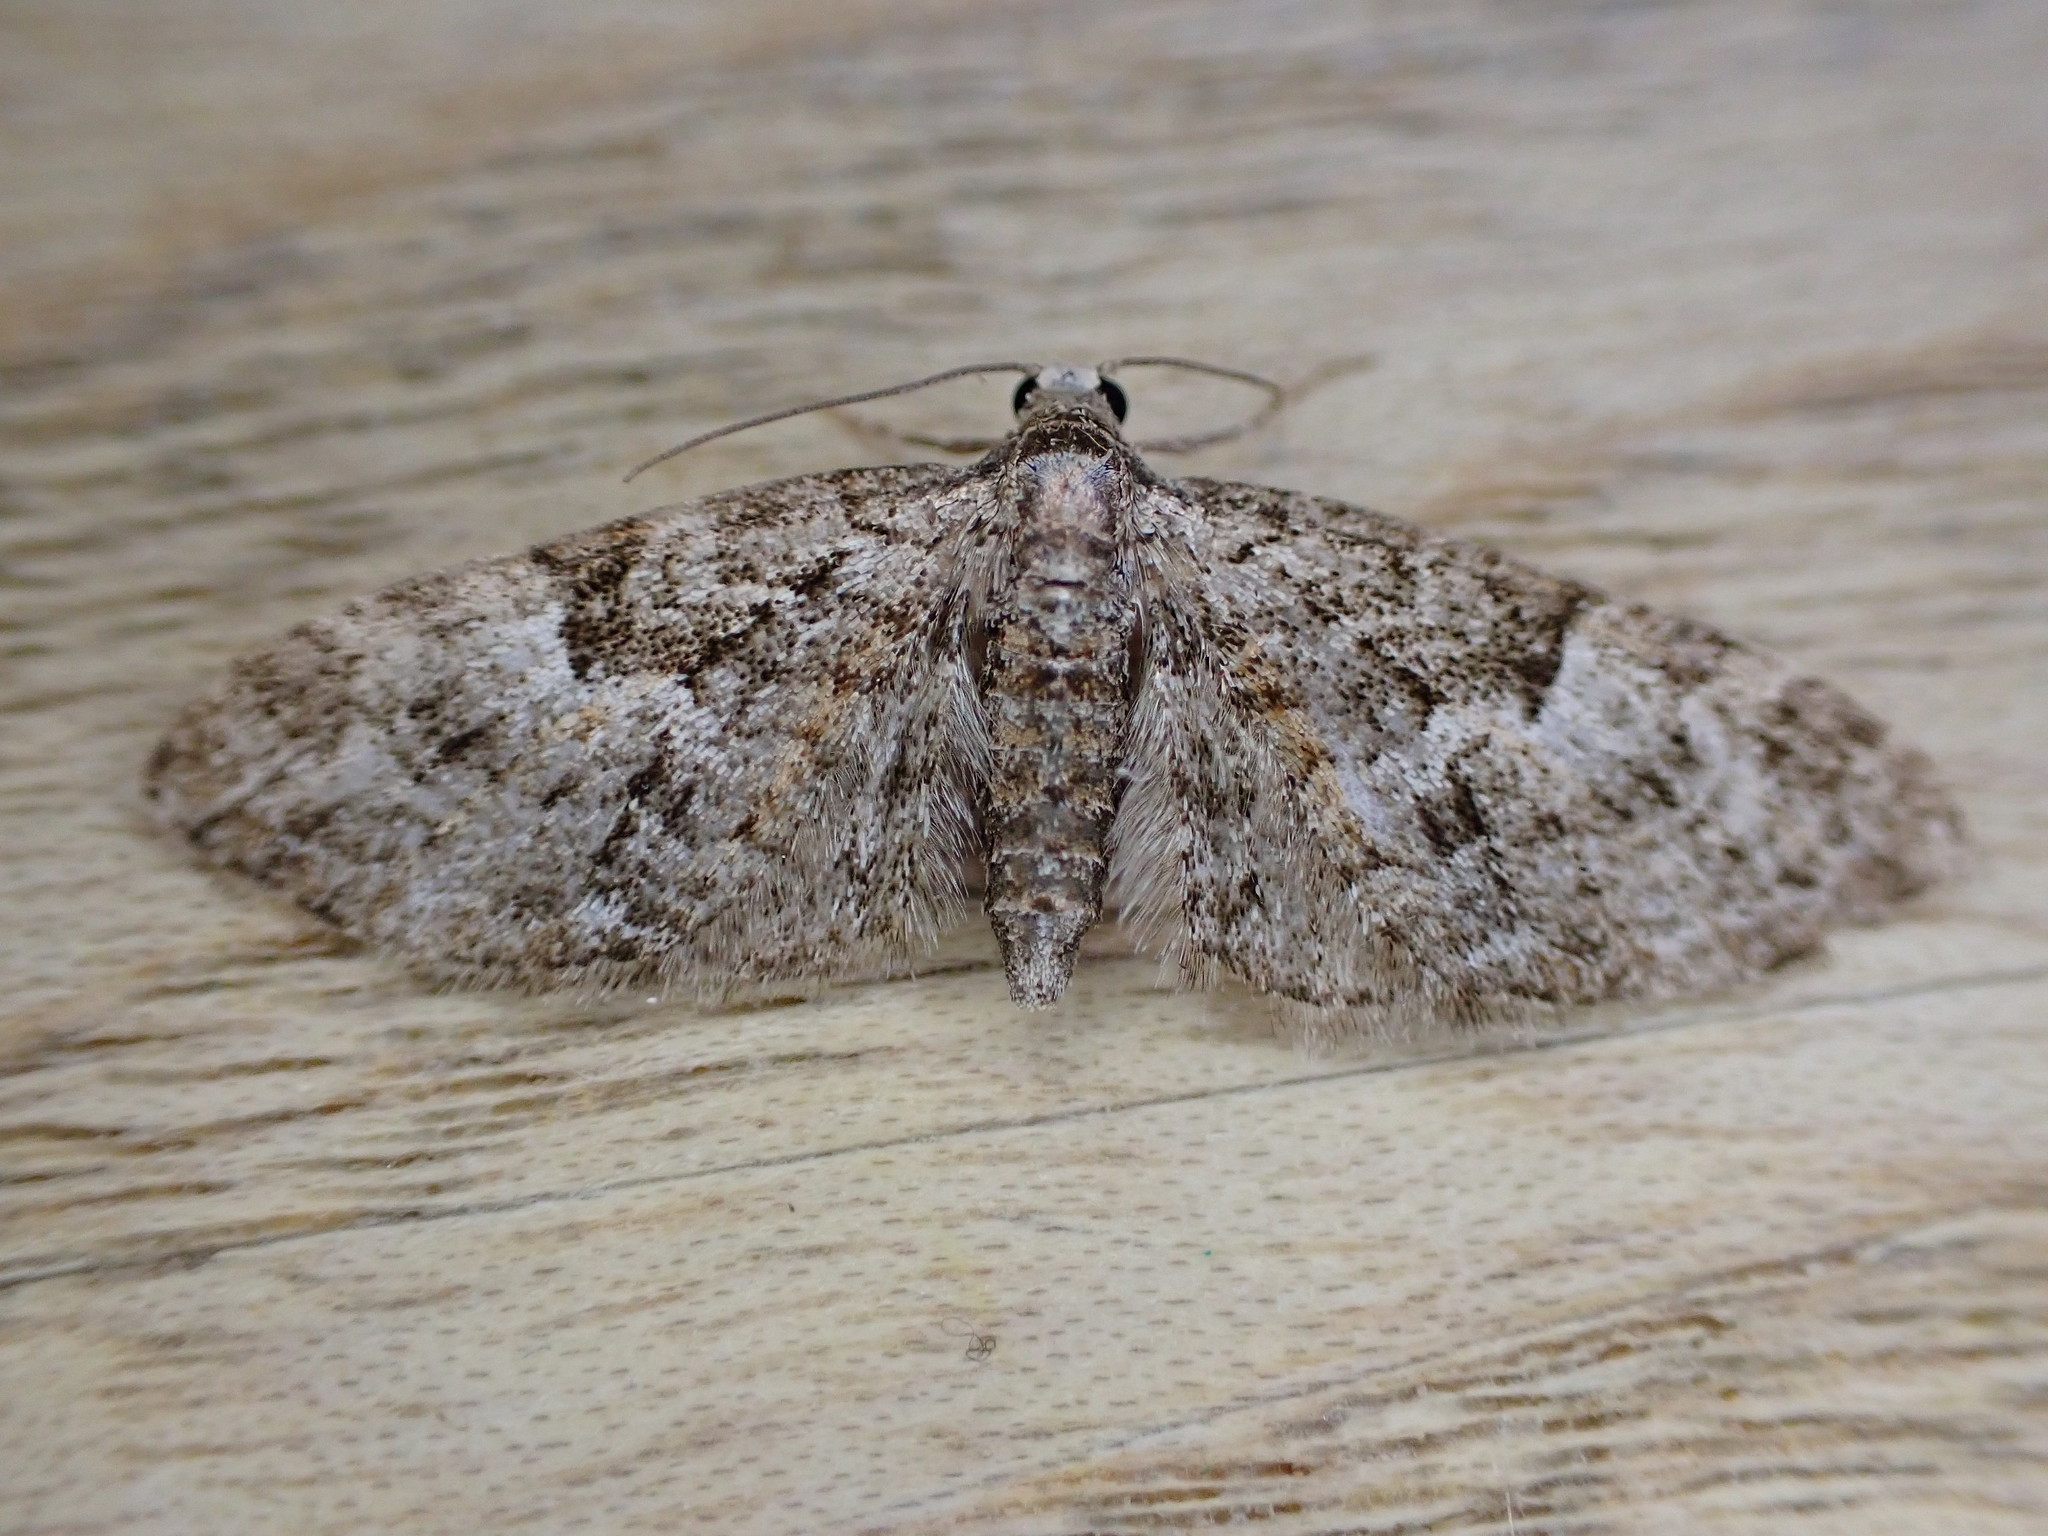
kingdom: Animalia
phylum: Arthropoda
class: Insecta
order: Lepidoptera
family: Geometridae
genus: Gymnoscelis
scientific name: Gymnoscelis rufifasciata
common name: Double-striped pug
